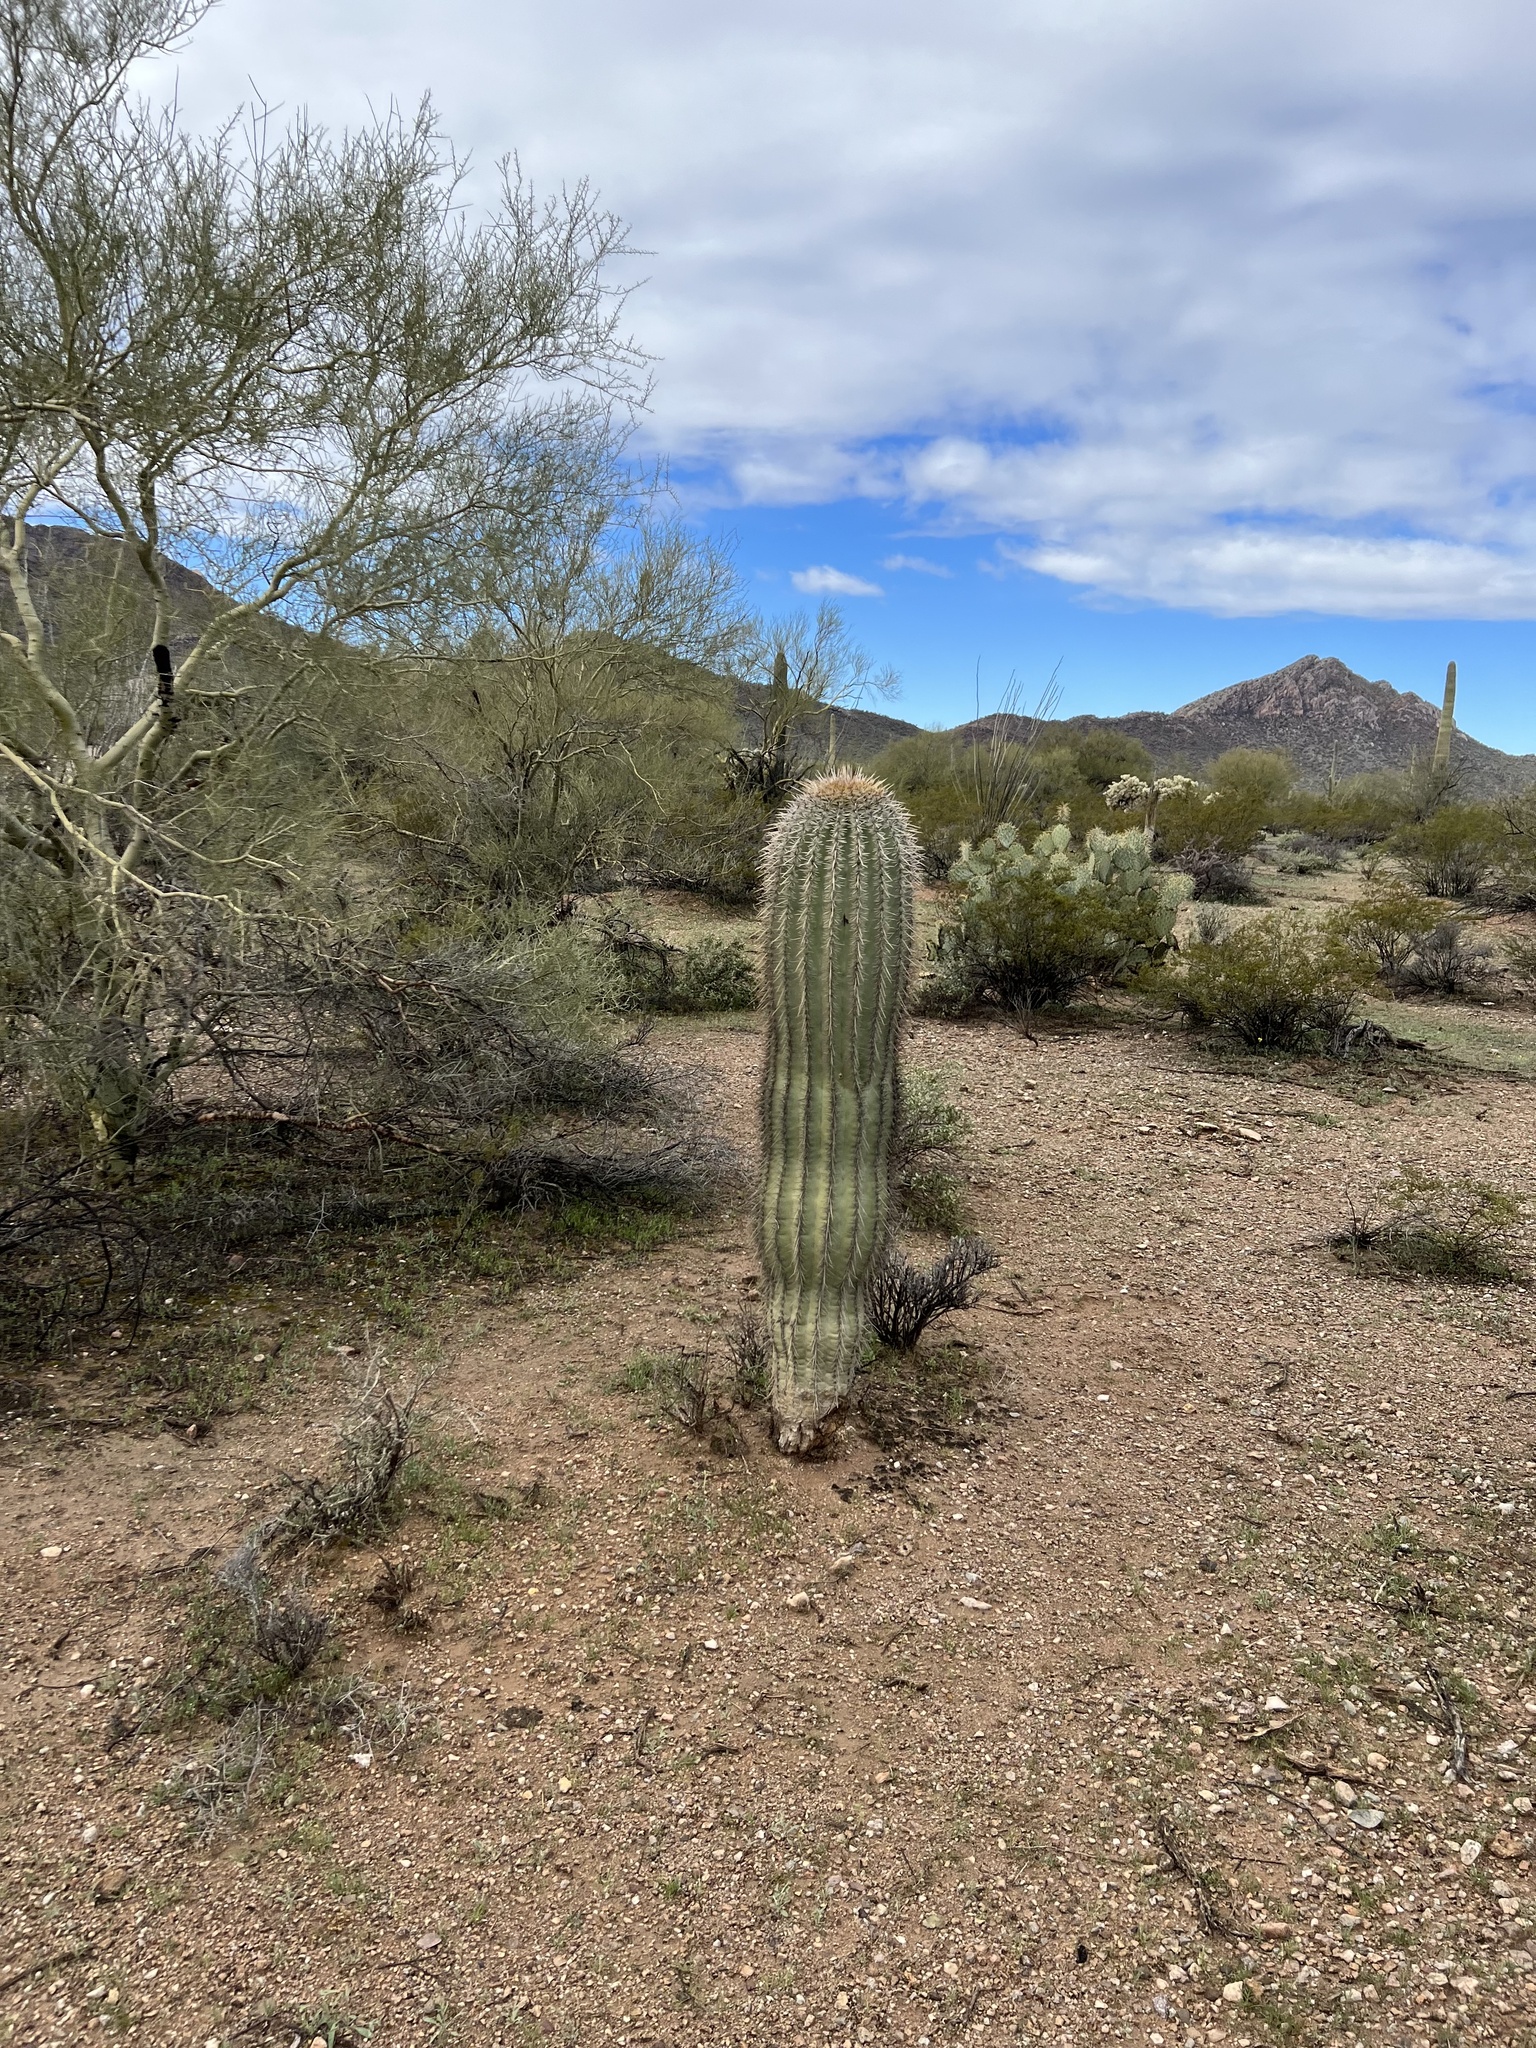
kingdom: Plantae
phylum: Tracheophyta
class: Magnoliopsida
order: Caryophyllales
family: Cactaceae
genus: Carnegiea
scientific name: Carnegiea gigantea
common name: Saguaro
